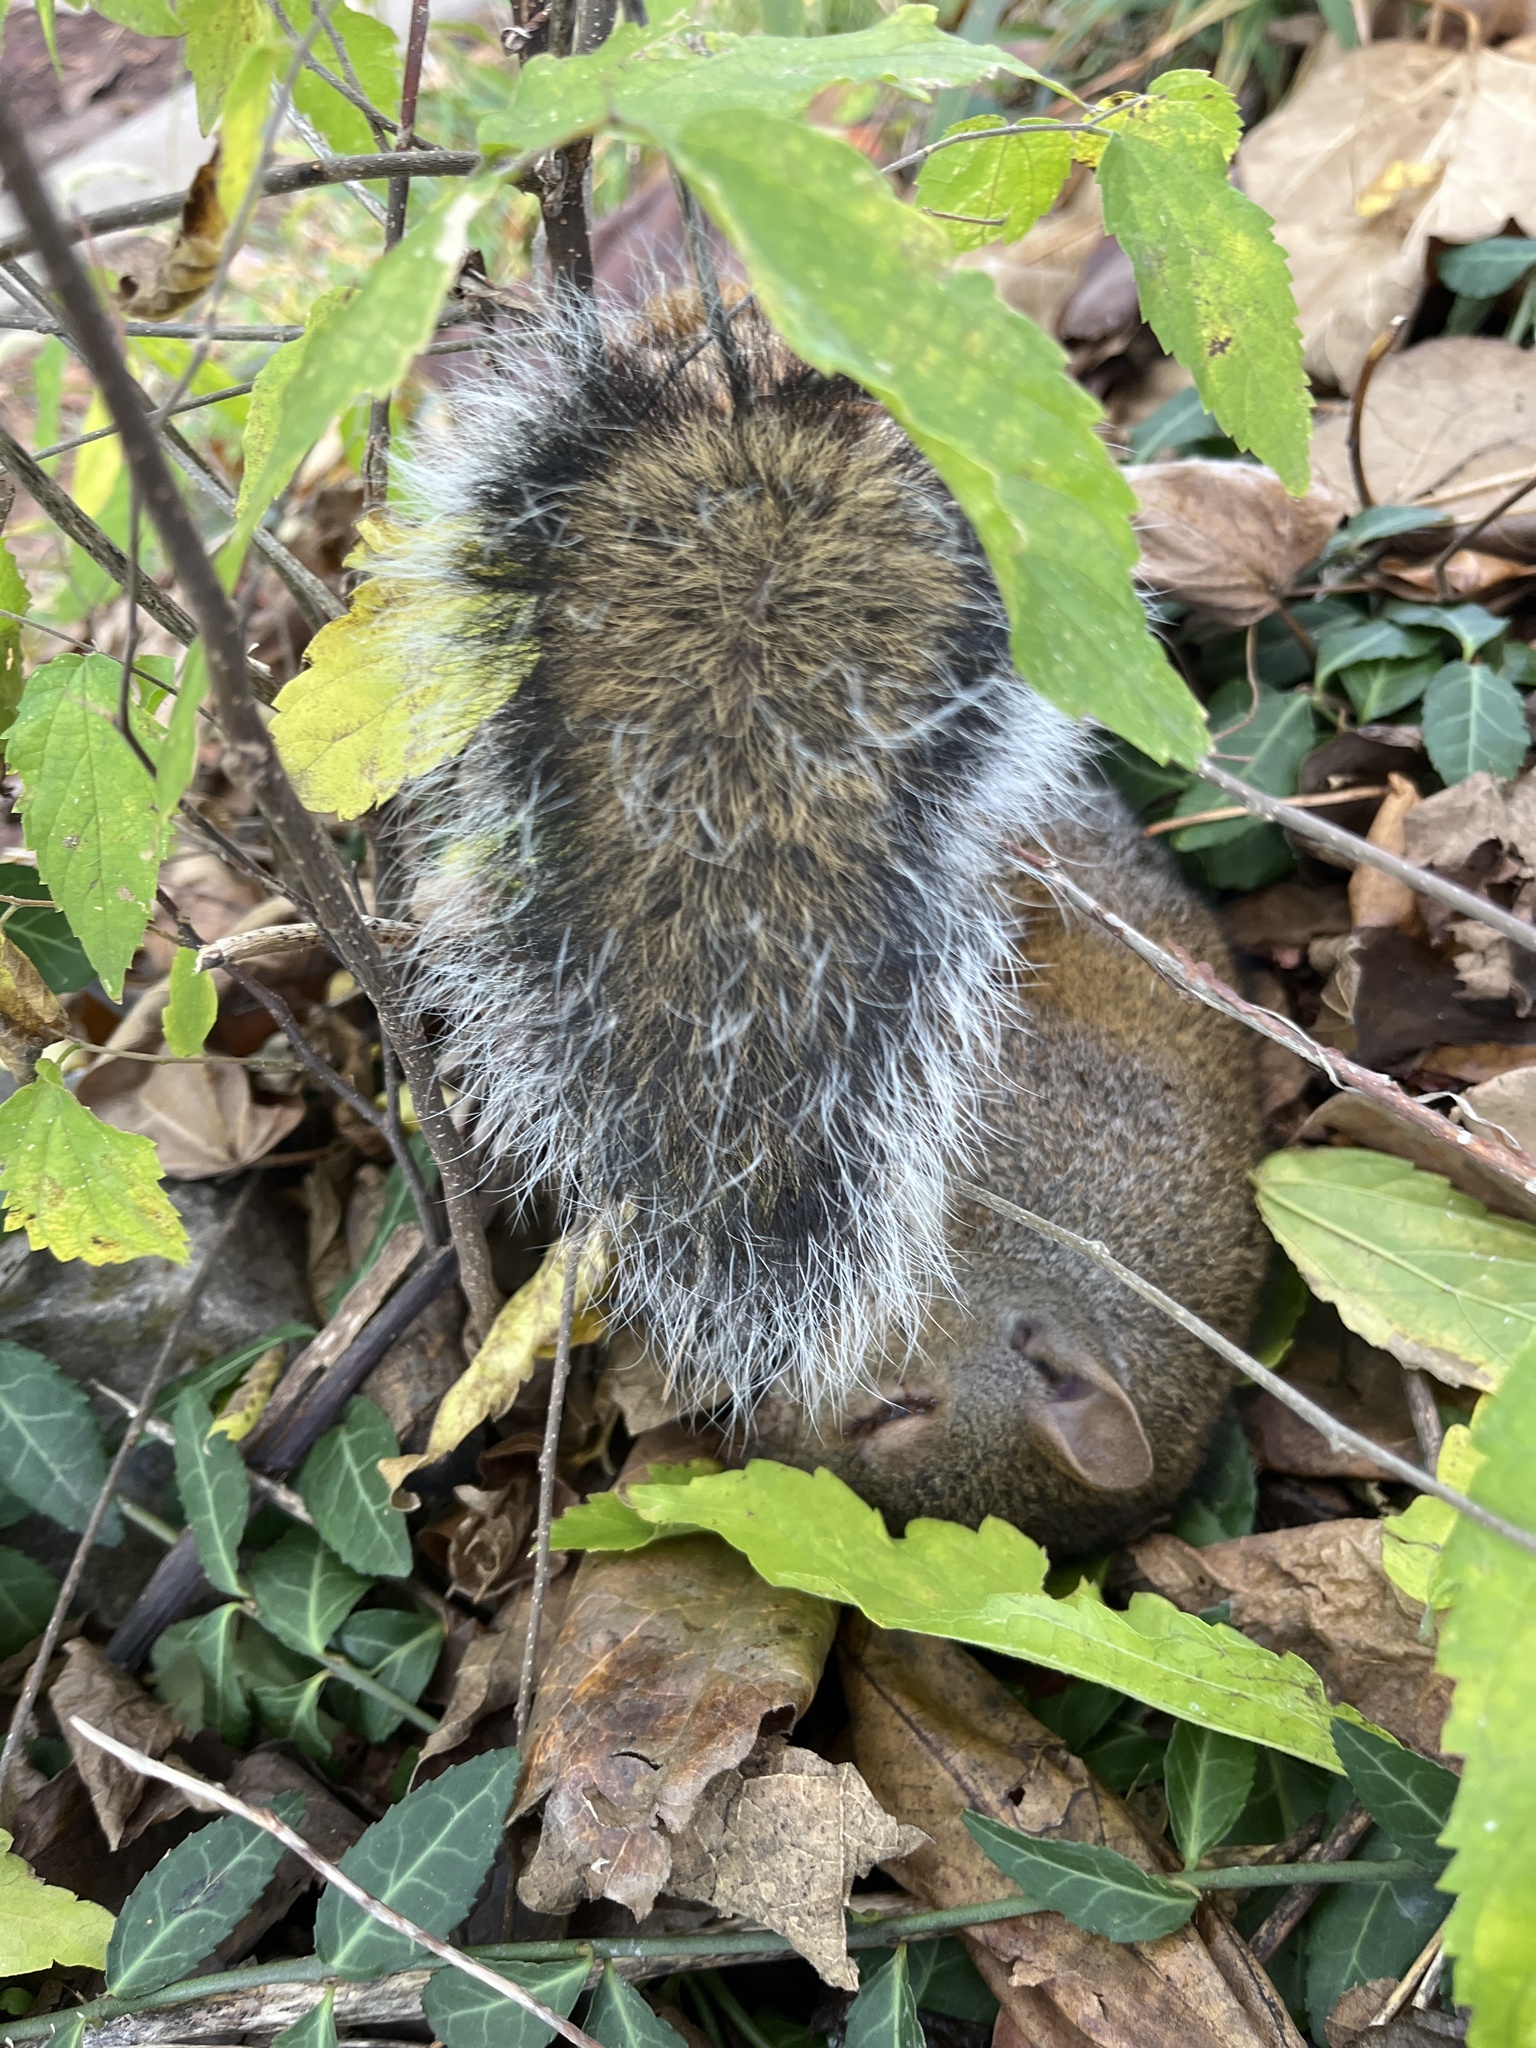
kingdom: Animalia
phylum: Chordata
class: Mammalia
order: Rodentia
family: Sciuridae
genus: Sciurus
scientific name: Sciurus carolinensis
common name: Eastern gray squirrel
